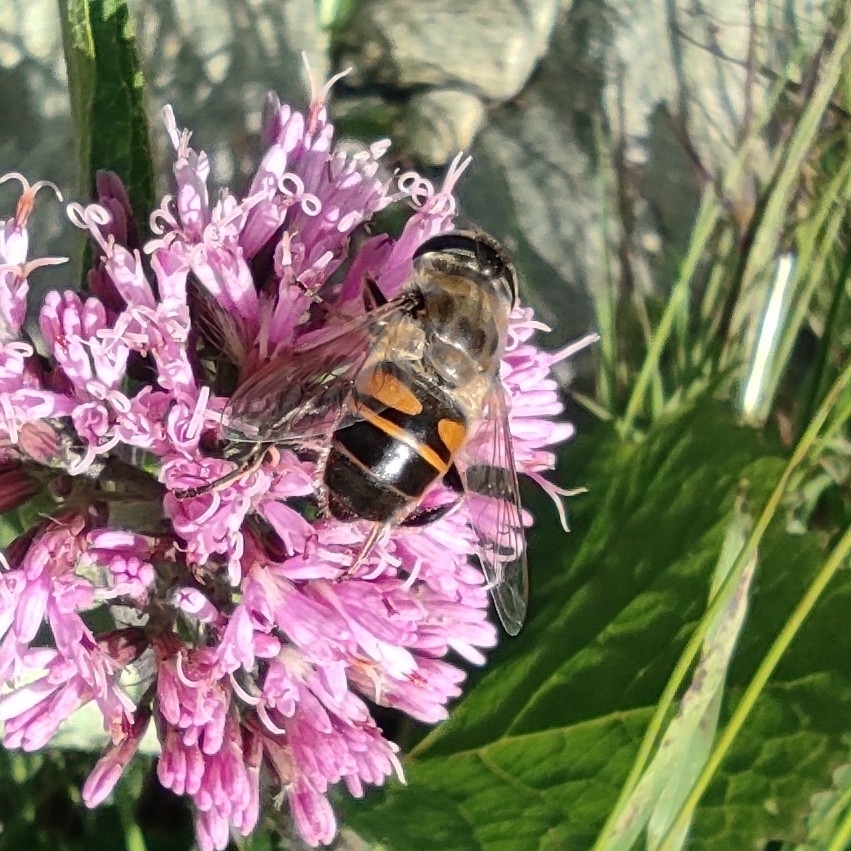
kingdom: Animalia
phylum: Arthropoda
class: Insecta
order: Diptera
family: Syrphidae
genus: Eristalis
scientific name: Eristalis tenax
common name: Drone fly
